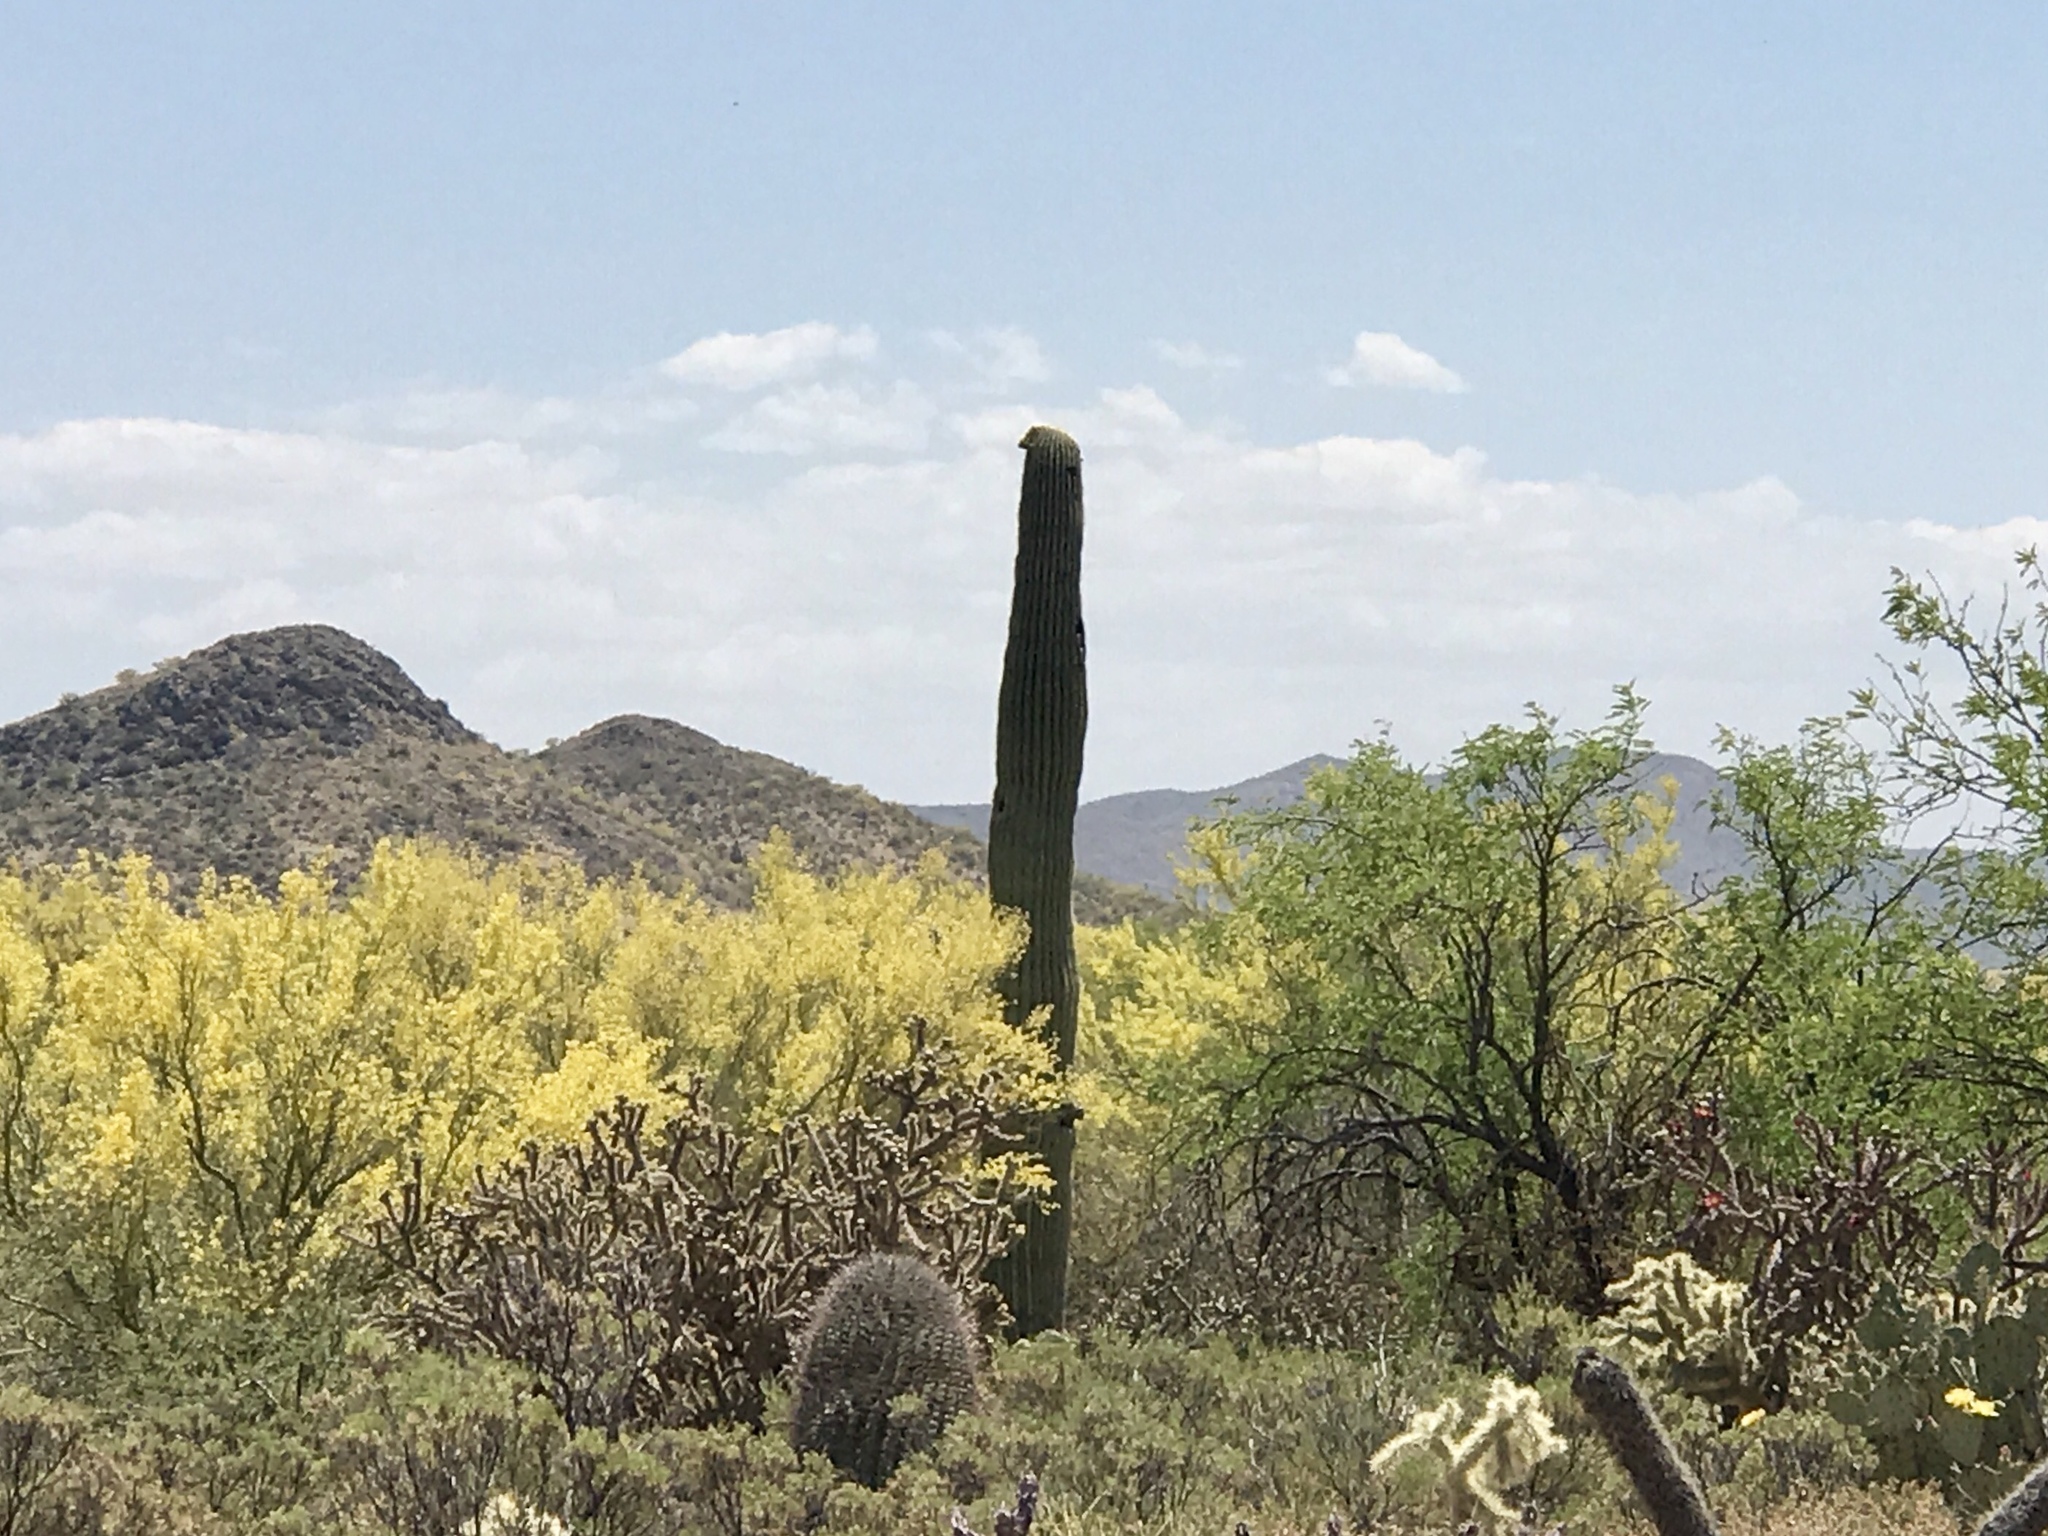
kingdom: Plantae
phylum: Tracheophyta
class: Magnoliopsida
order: Caryophyllales
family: Cactaceae
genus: Carnegiea
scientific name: Carnegiea gigantea
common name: Saguaro
